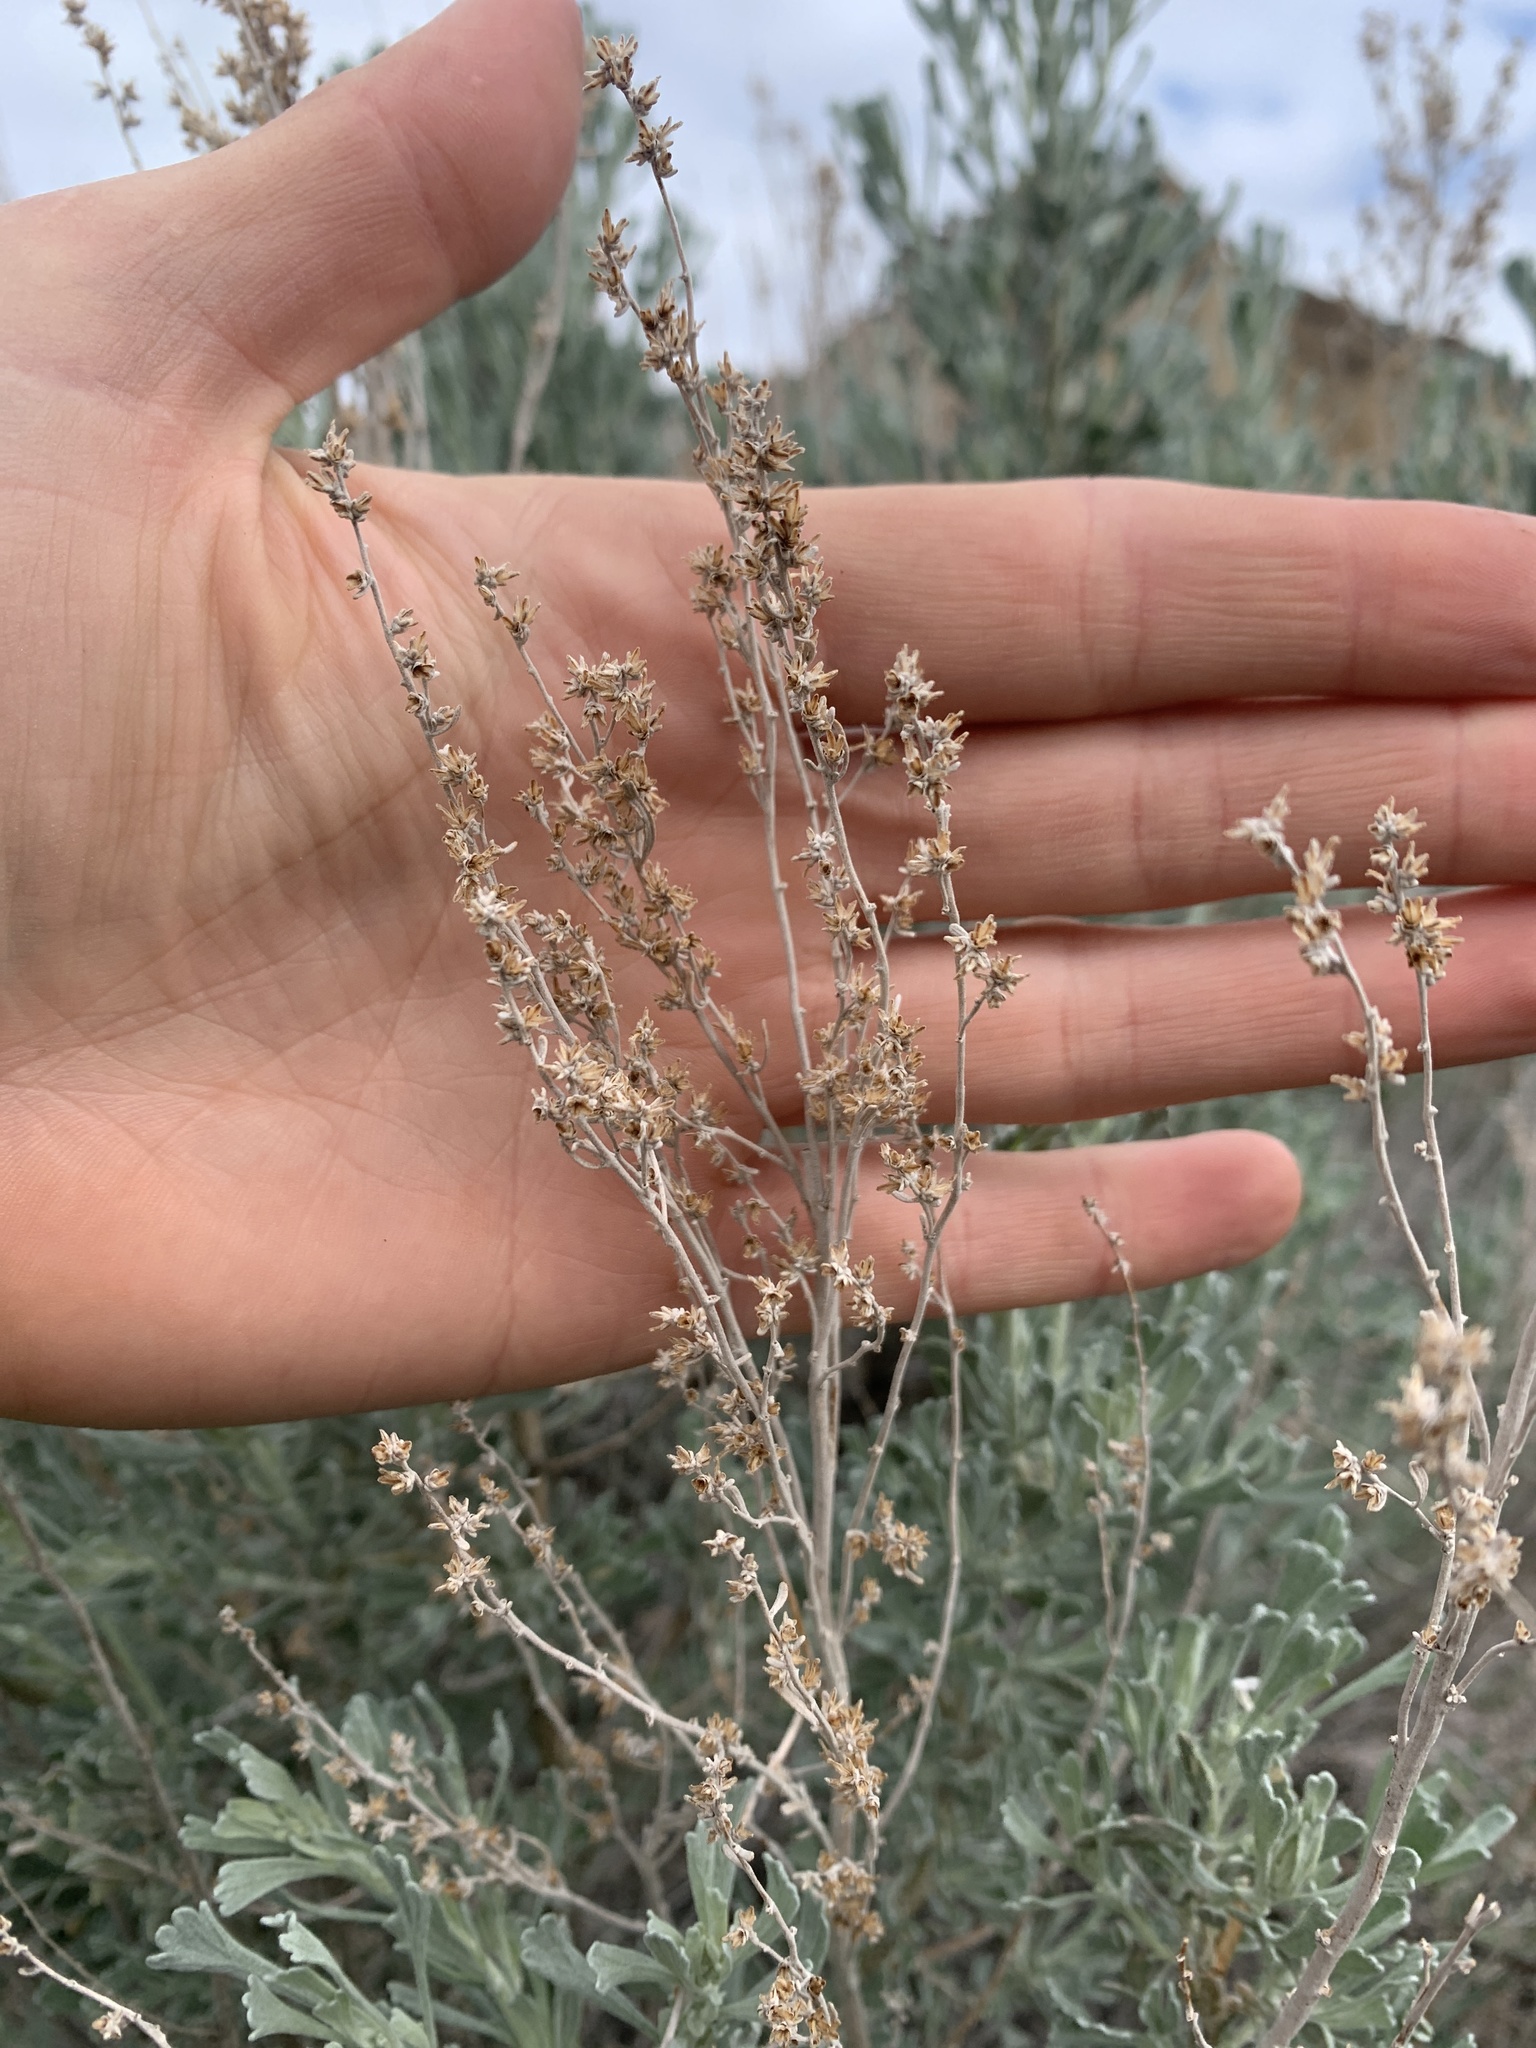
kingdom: Plantae
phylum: Tracheophyta
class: Magnoliopsida
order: Asterales
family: Asteraceae
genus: Artemisia
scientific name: Artemisia tridentata
